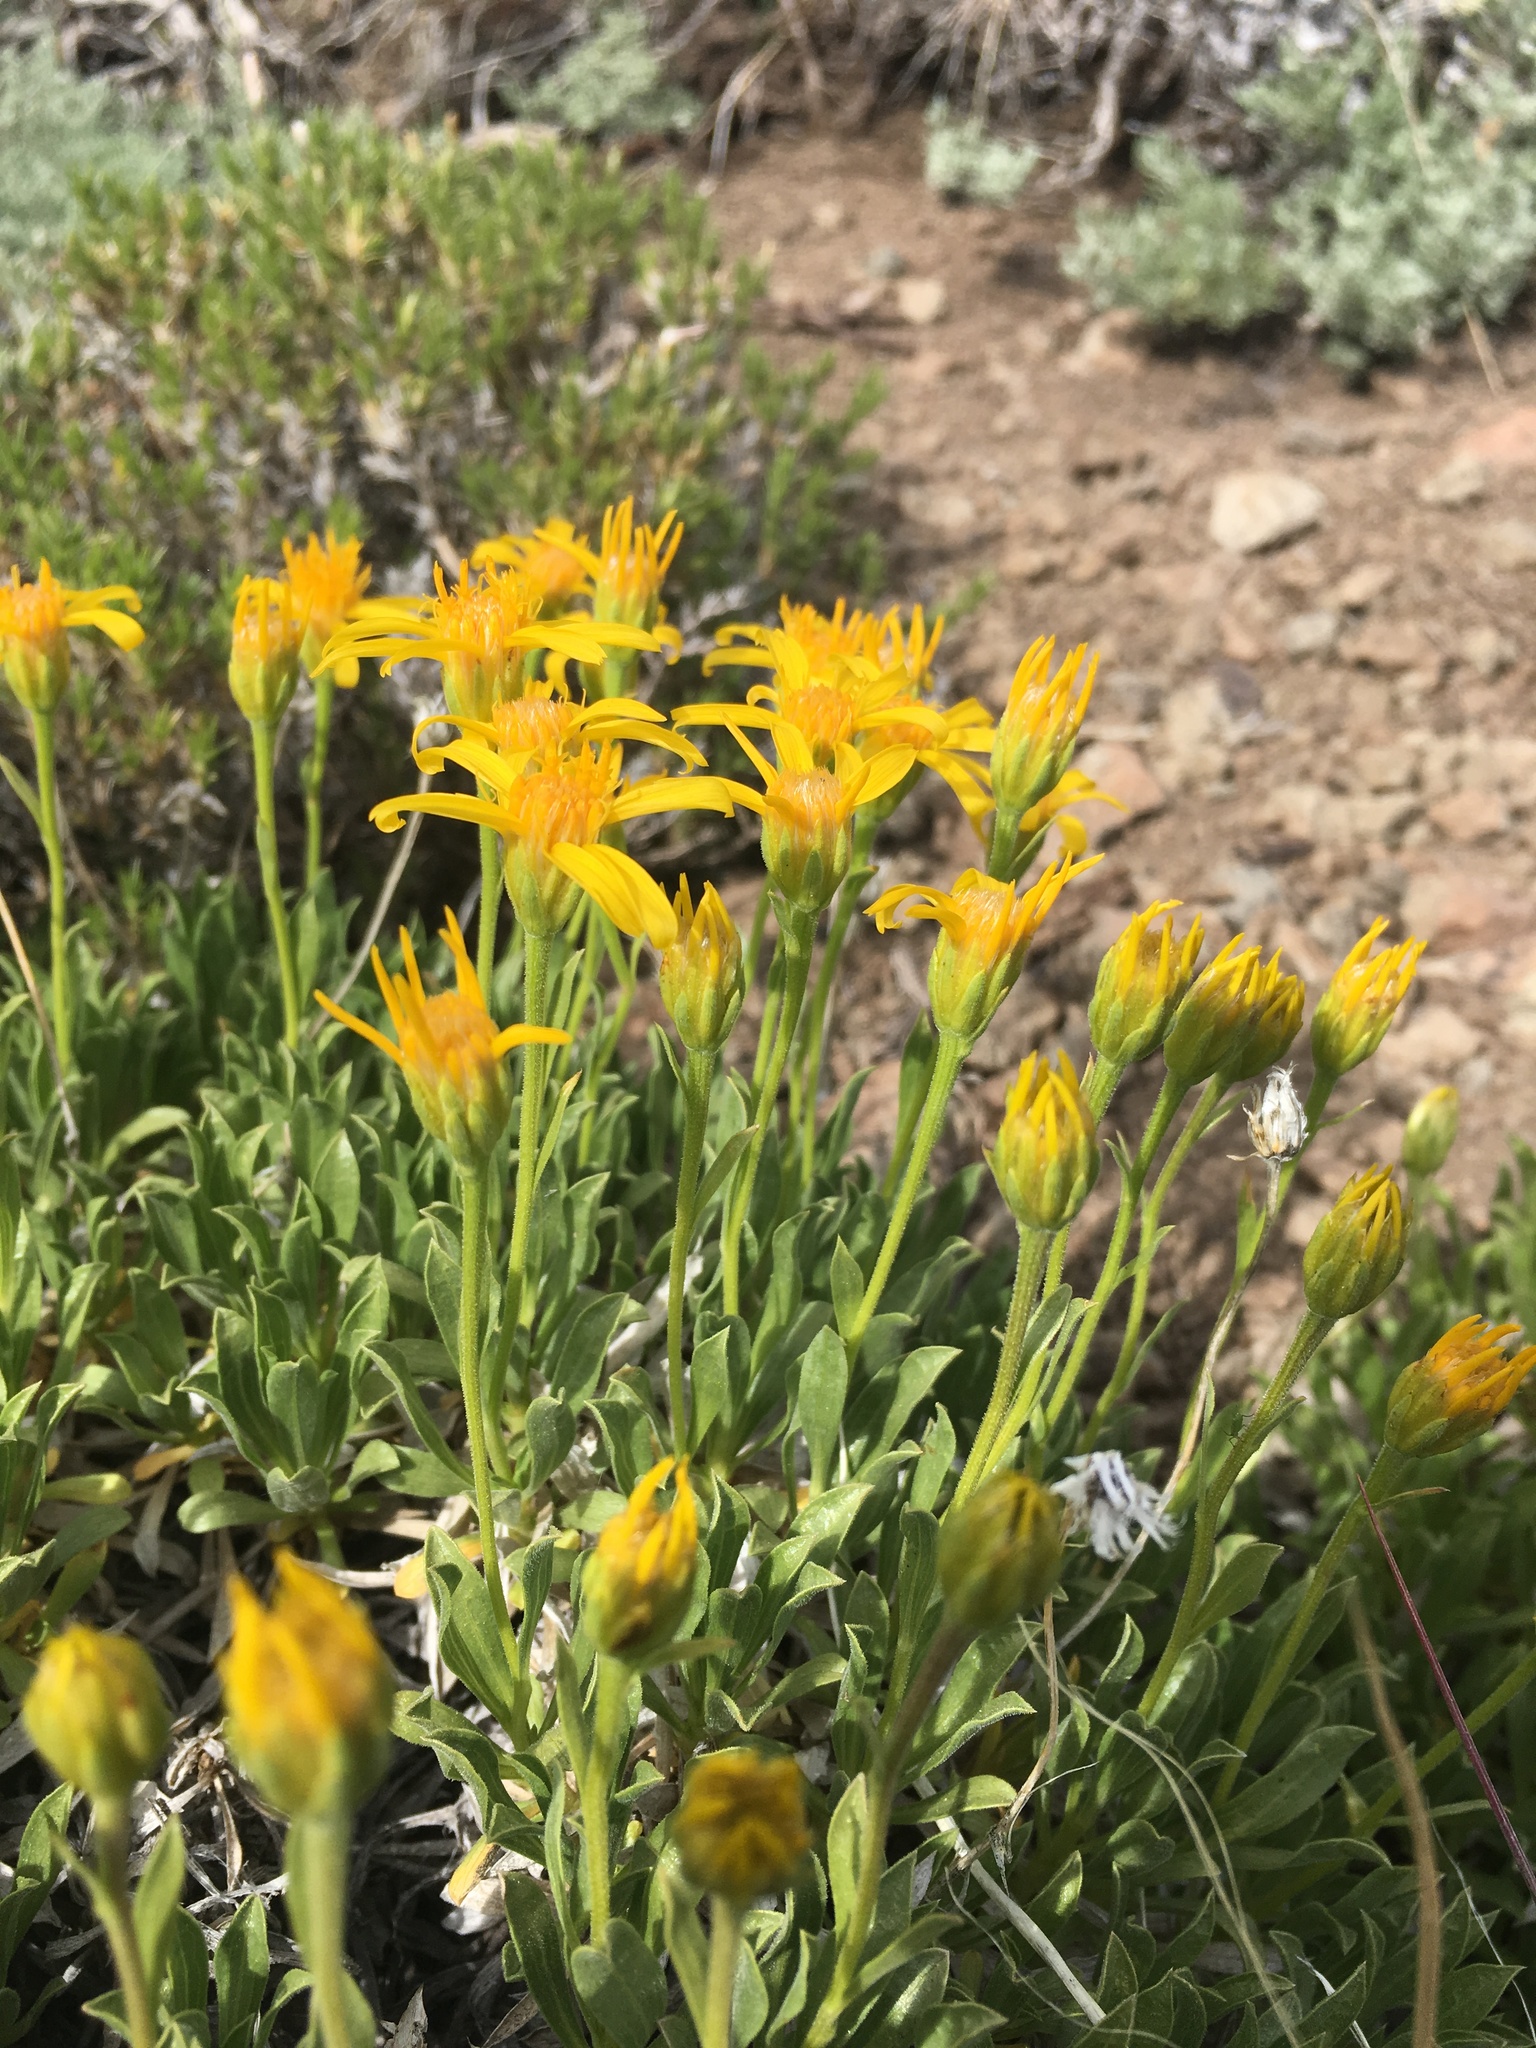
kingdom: Plantae
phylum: Tracheophyta
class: Magnoliopsida
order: Asterales
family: Asteraceae
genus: Stenotus
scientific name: Stenotus acaulis
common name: Stemless goldenweed
